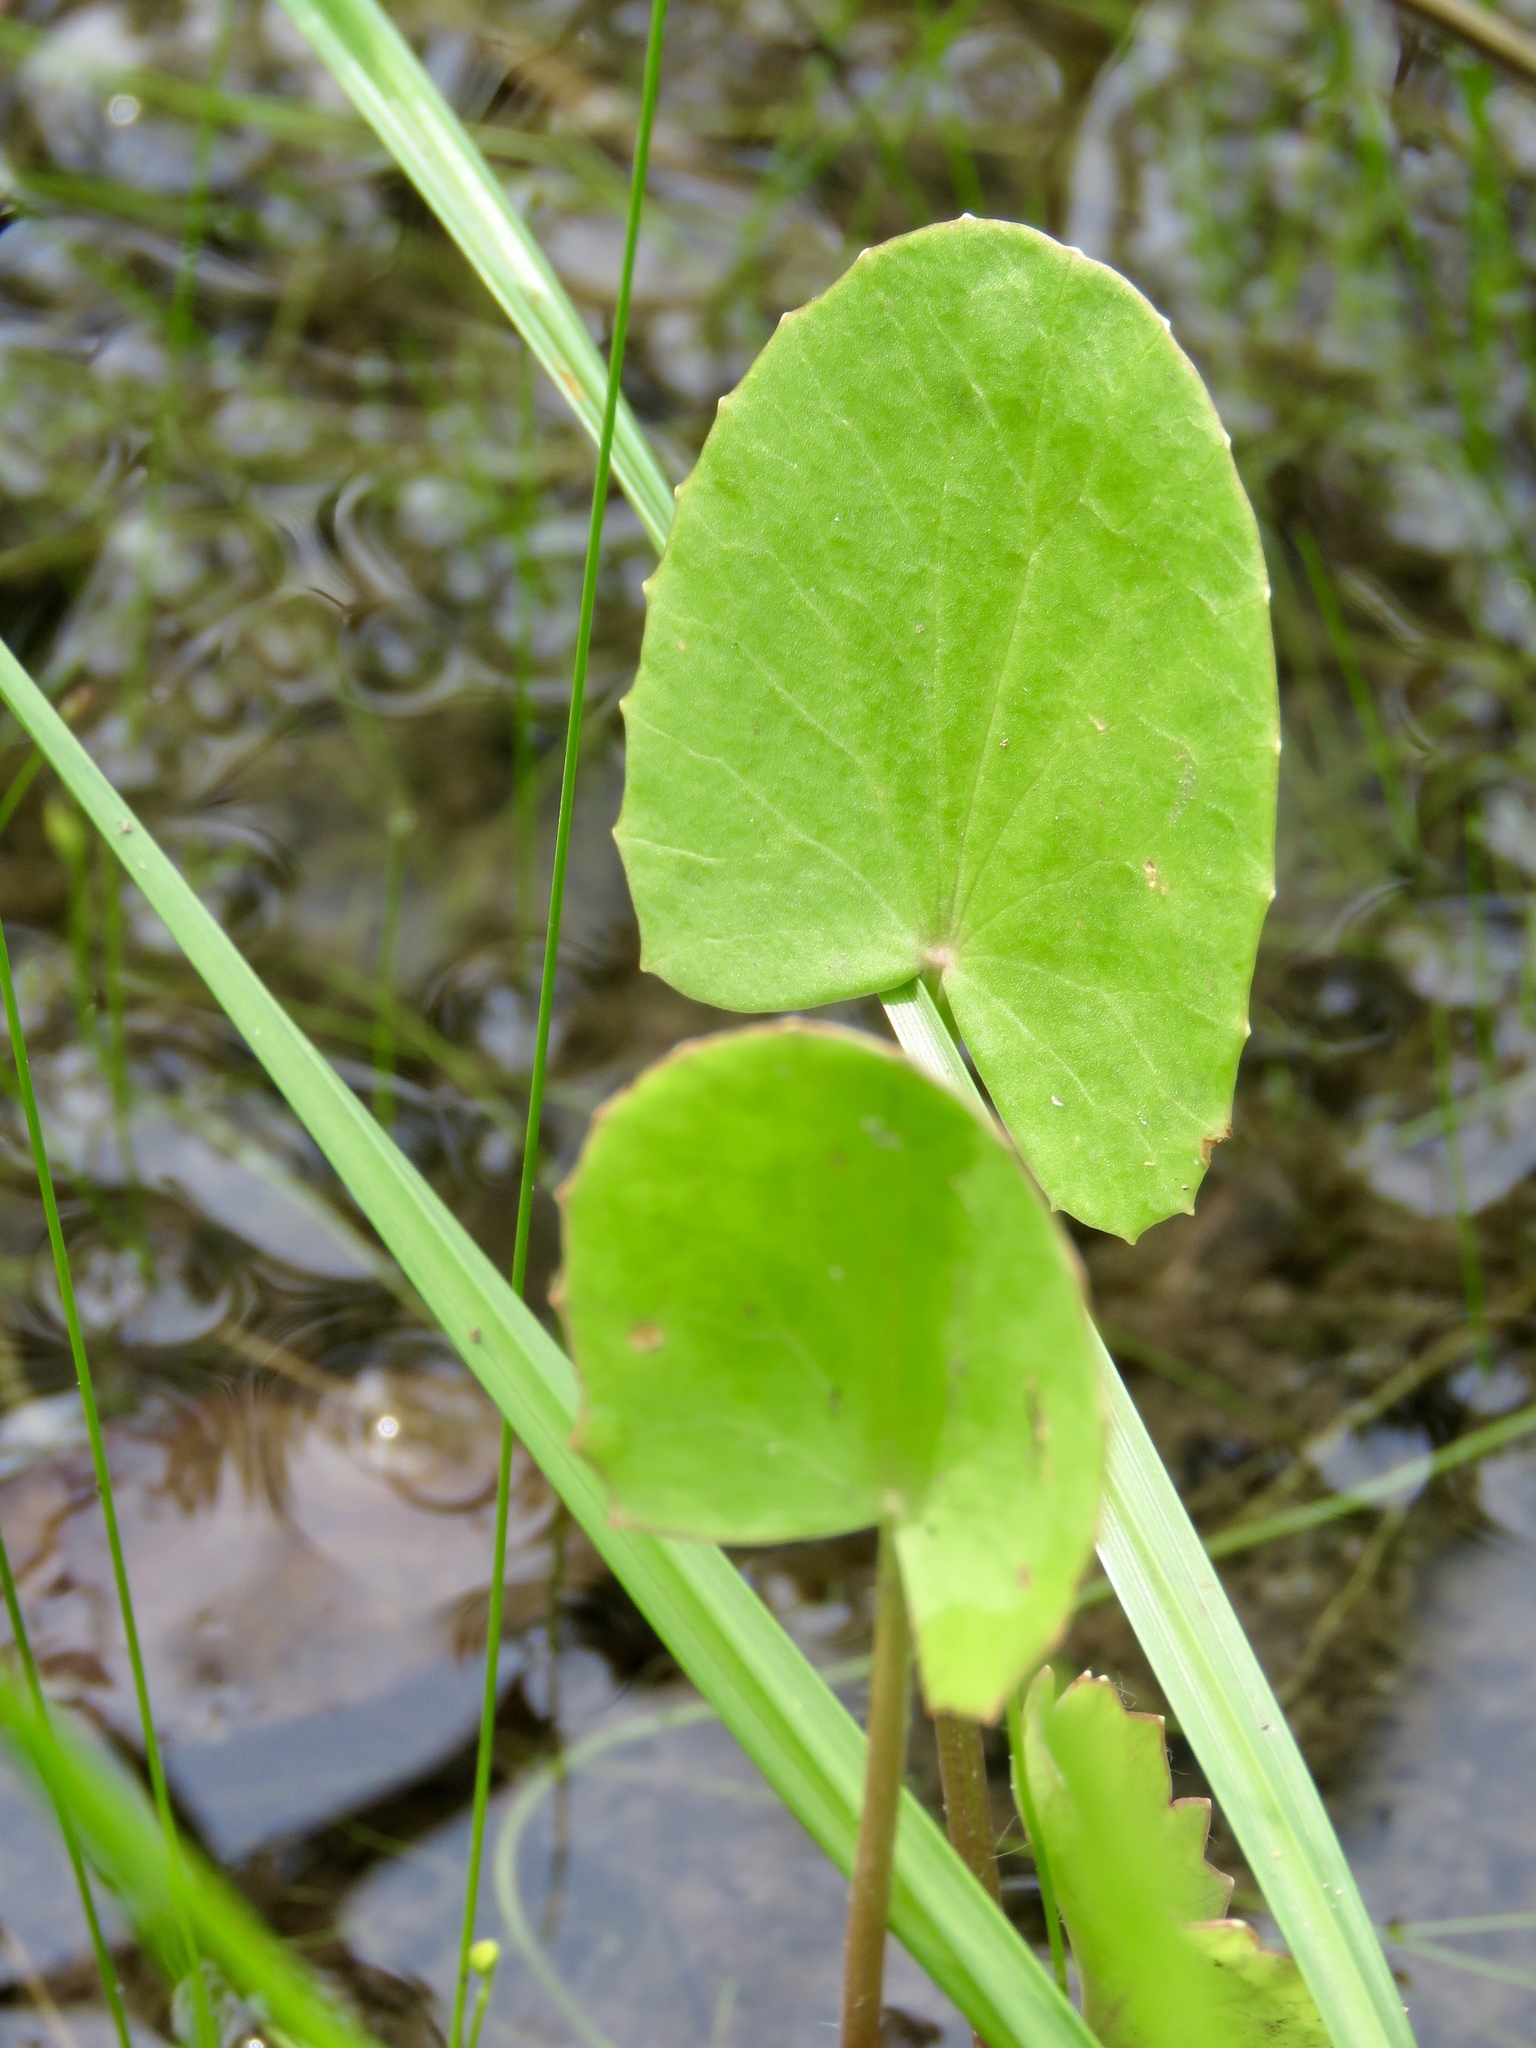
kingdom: Plantae
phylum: Tracheophyta
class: Magnoliopsida
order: Apiales
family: Apiaceae
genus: Centella
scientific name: Centella erecta
